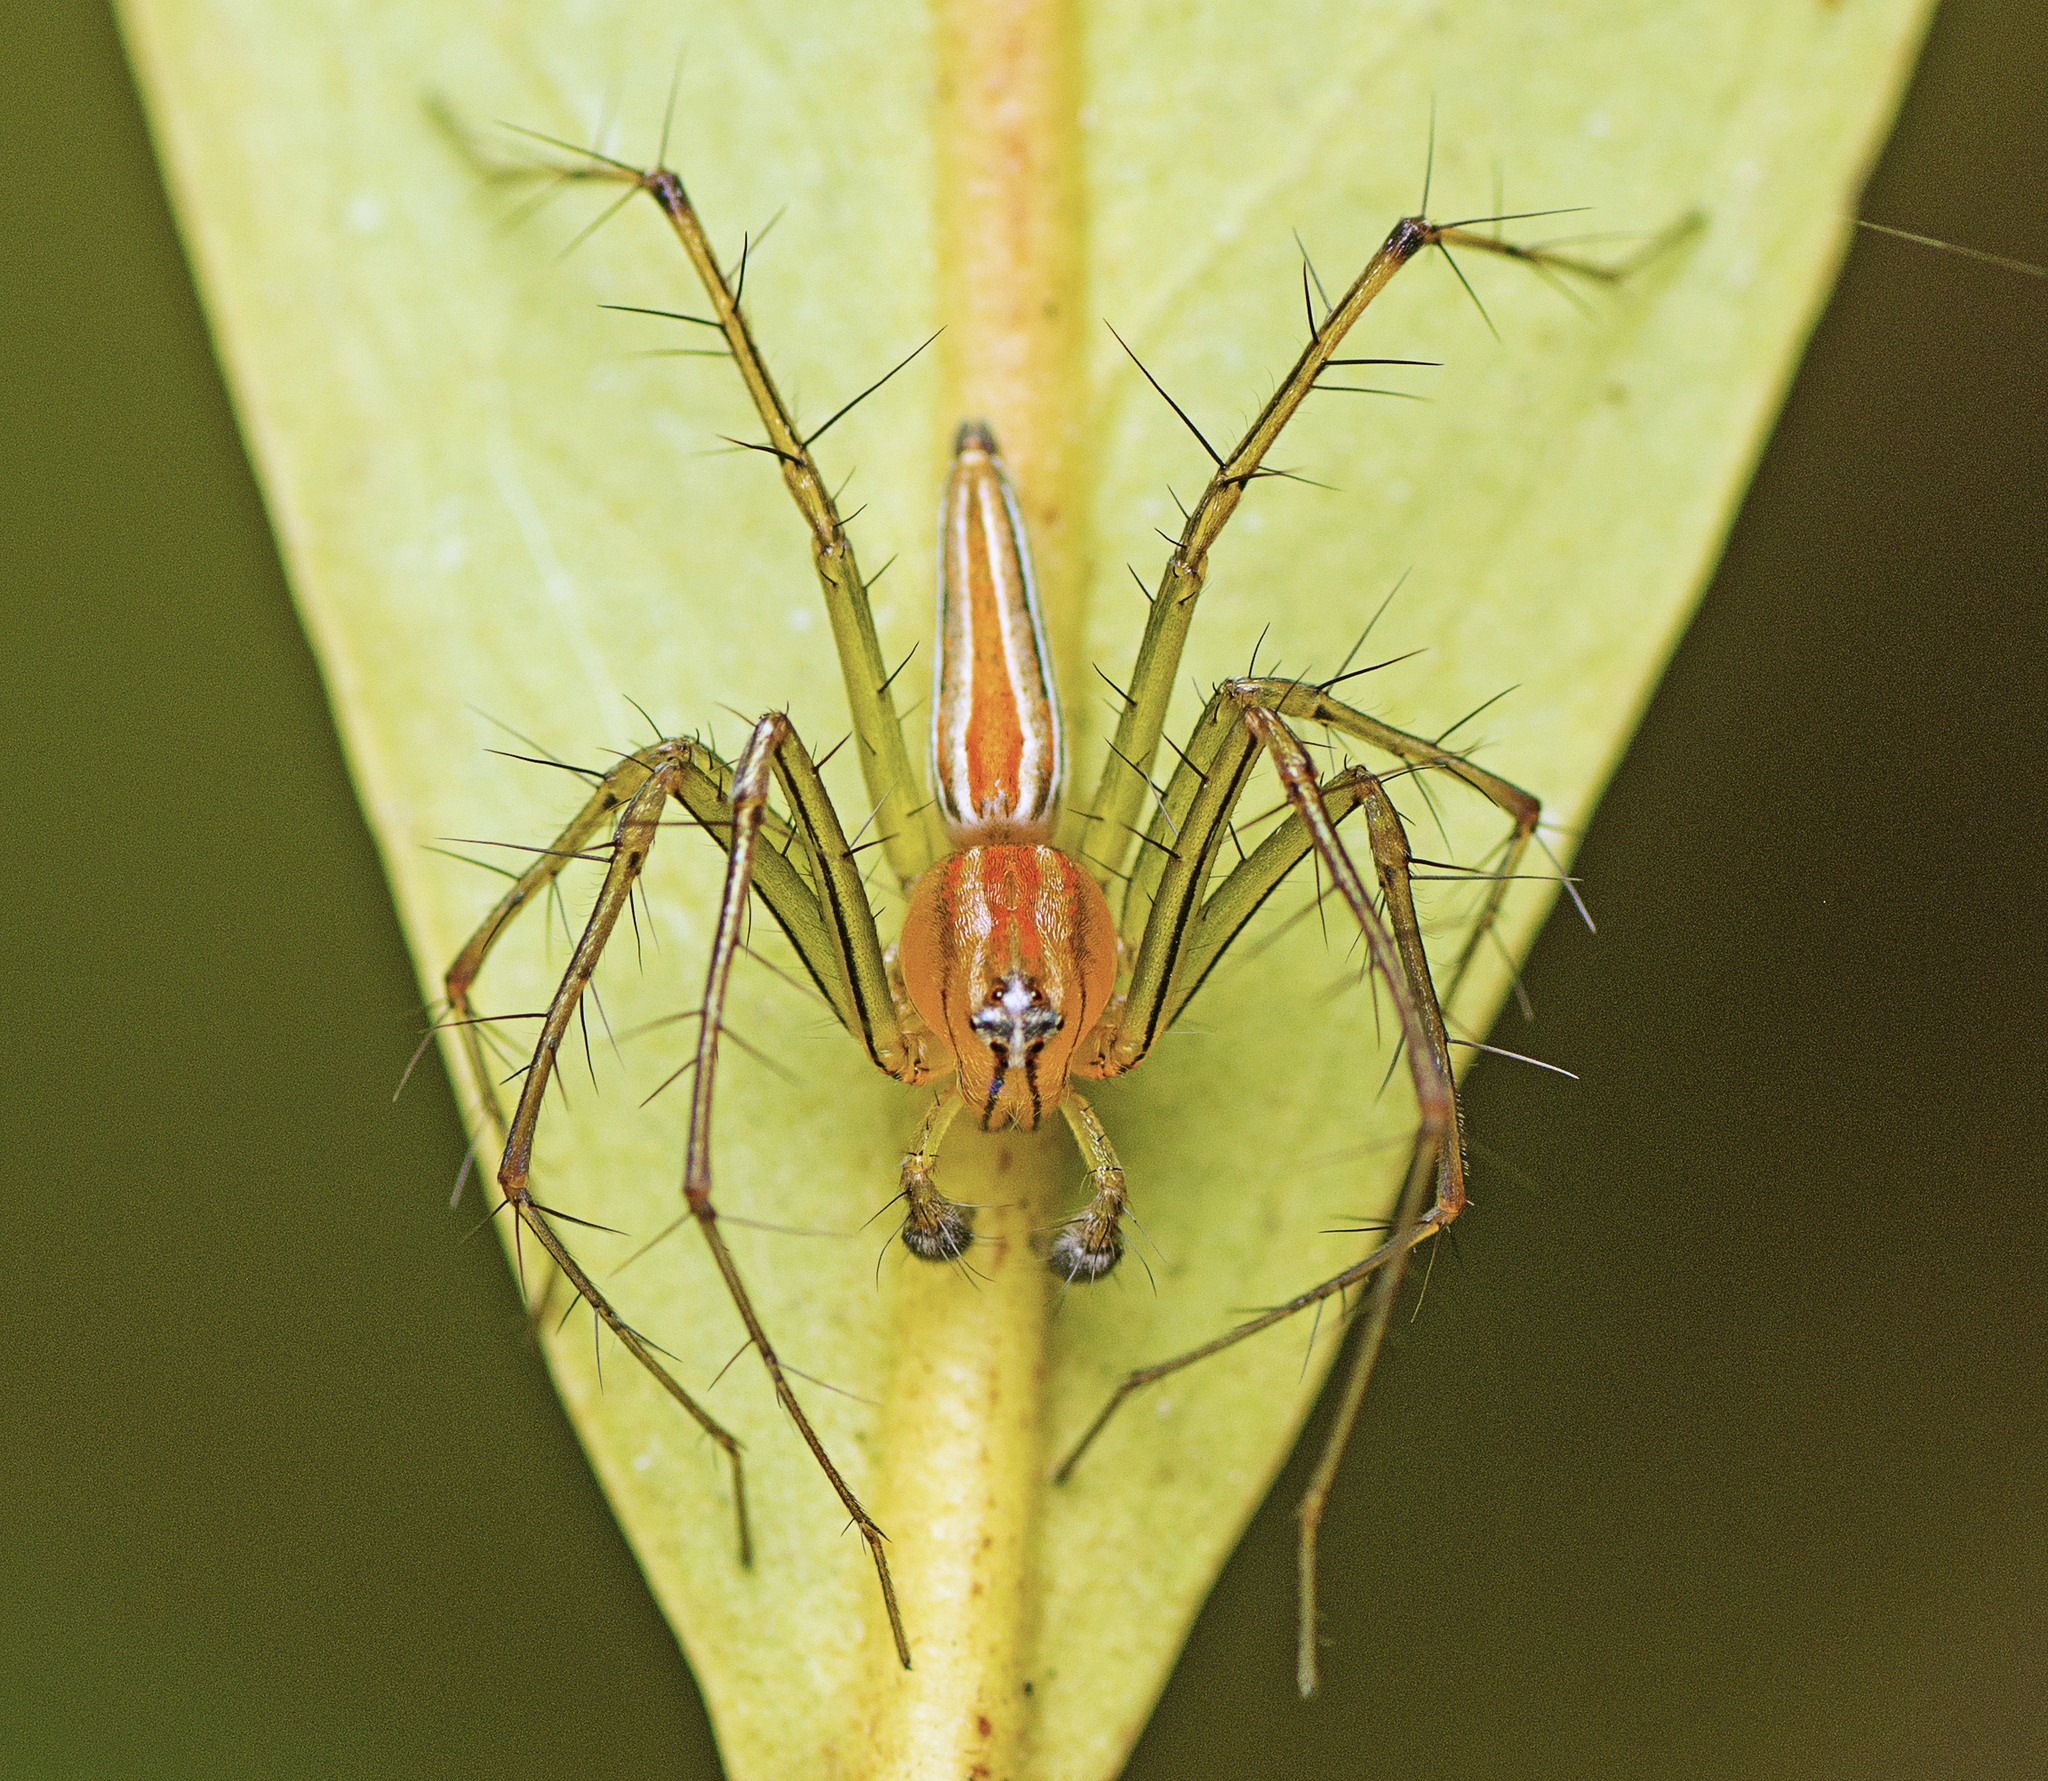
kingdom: Animalia
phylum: Arthropoda
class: Arachnida
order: Araneae
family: Oxyopidae
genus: Oxyopes
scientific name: Oxyopes macilentus
